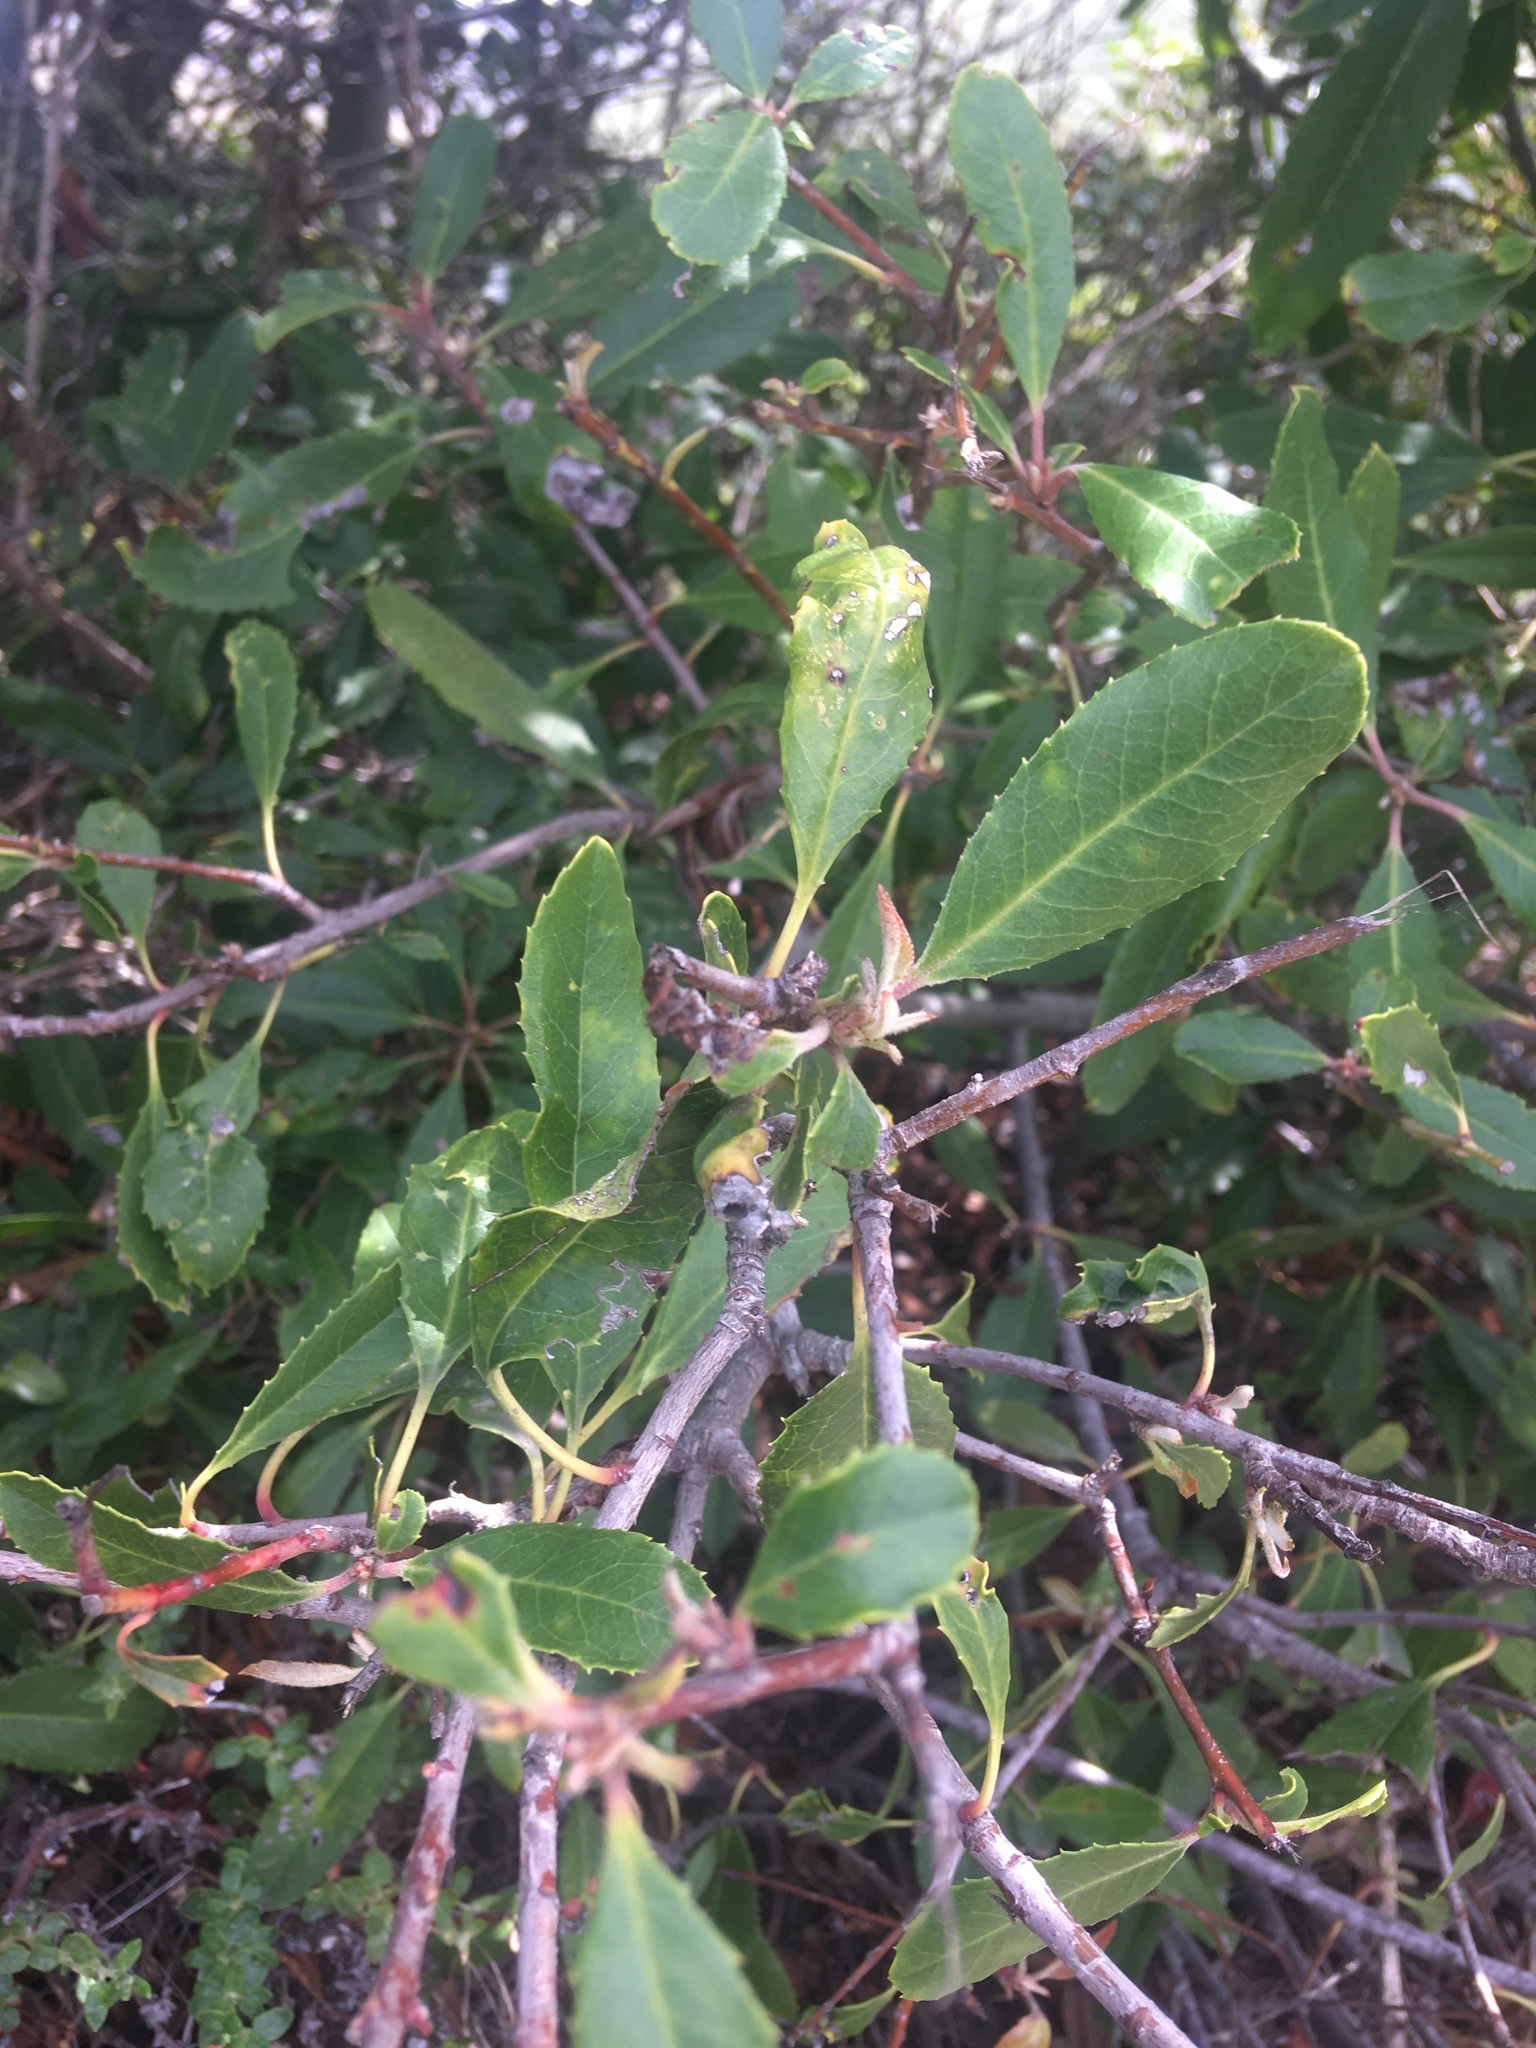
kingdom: Plantae
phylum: Tracheophyta
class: Magnoliopsida
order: Rosales
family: Rosaceae
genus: Heteromeles
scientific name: Heteromeles arbutifolia
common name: California-holly
